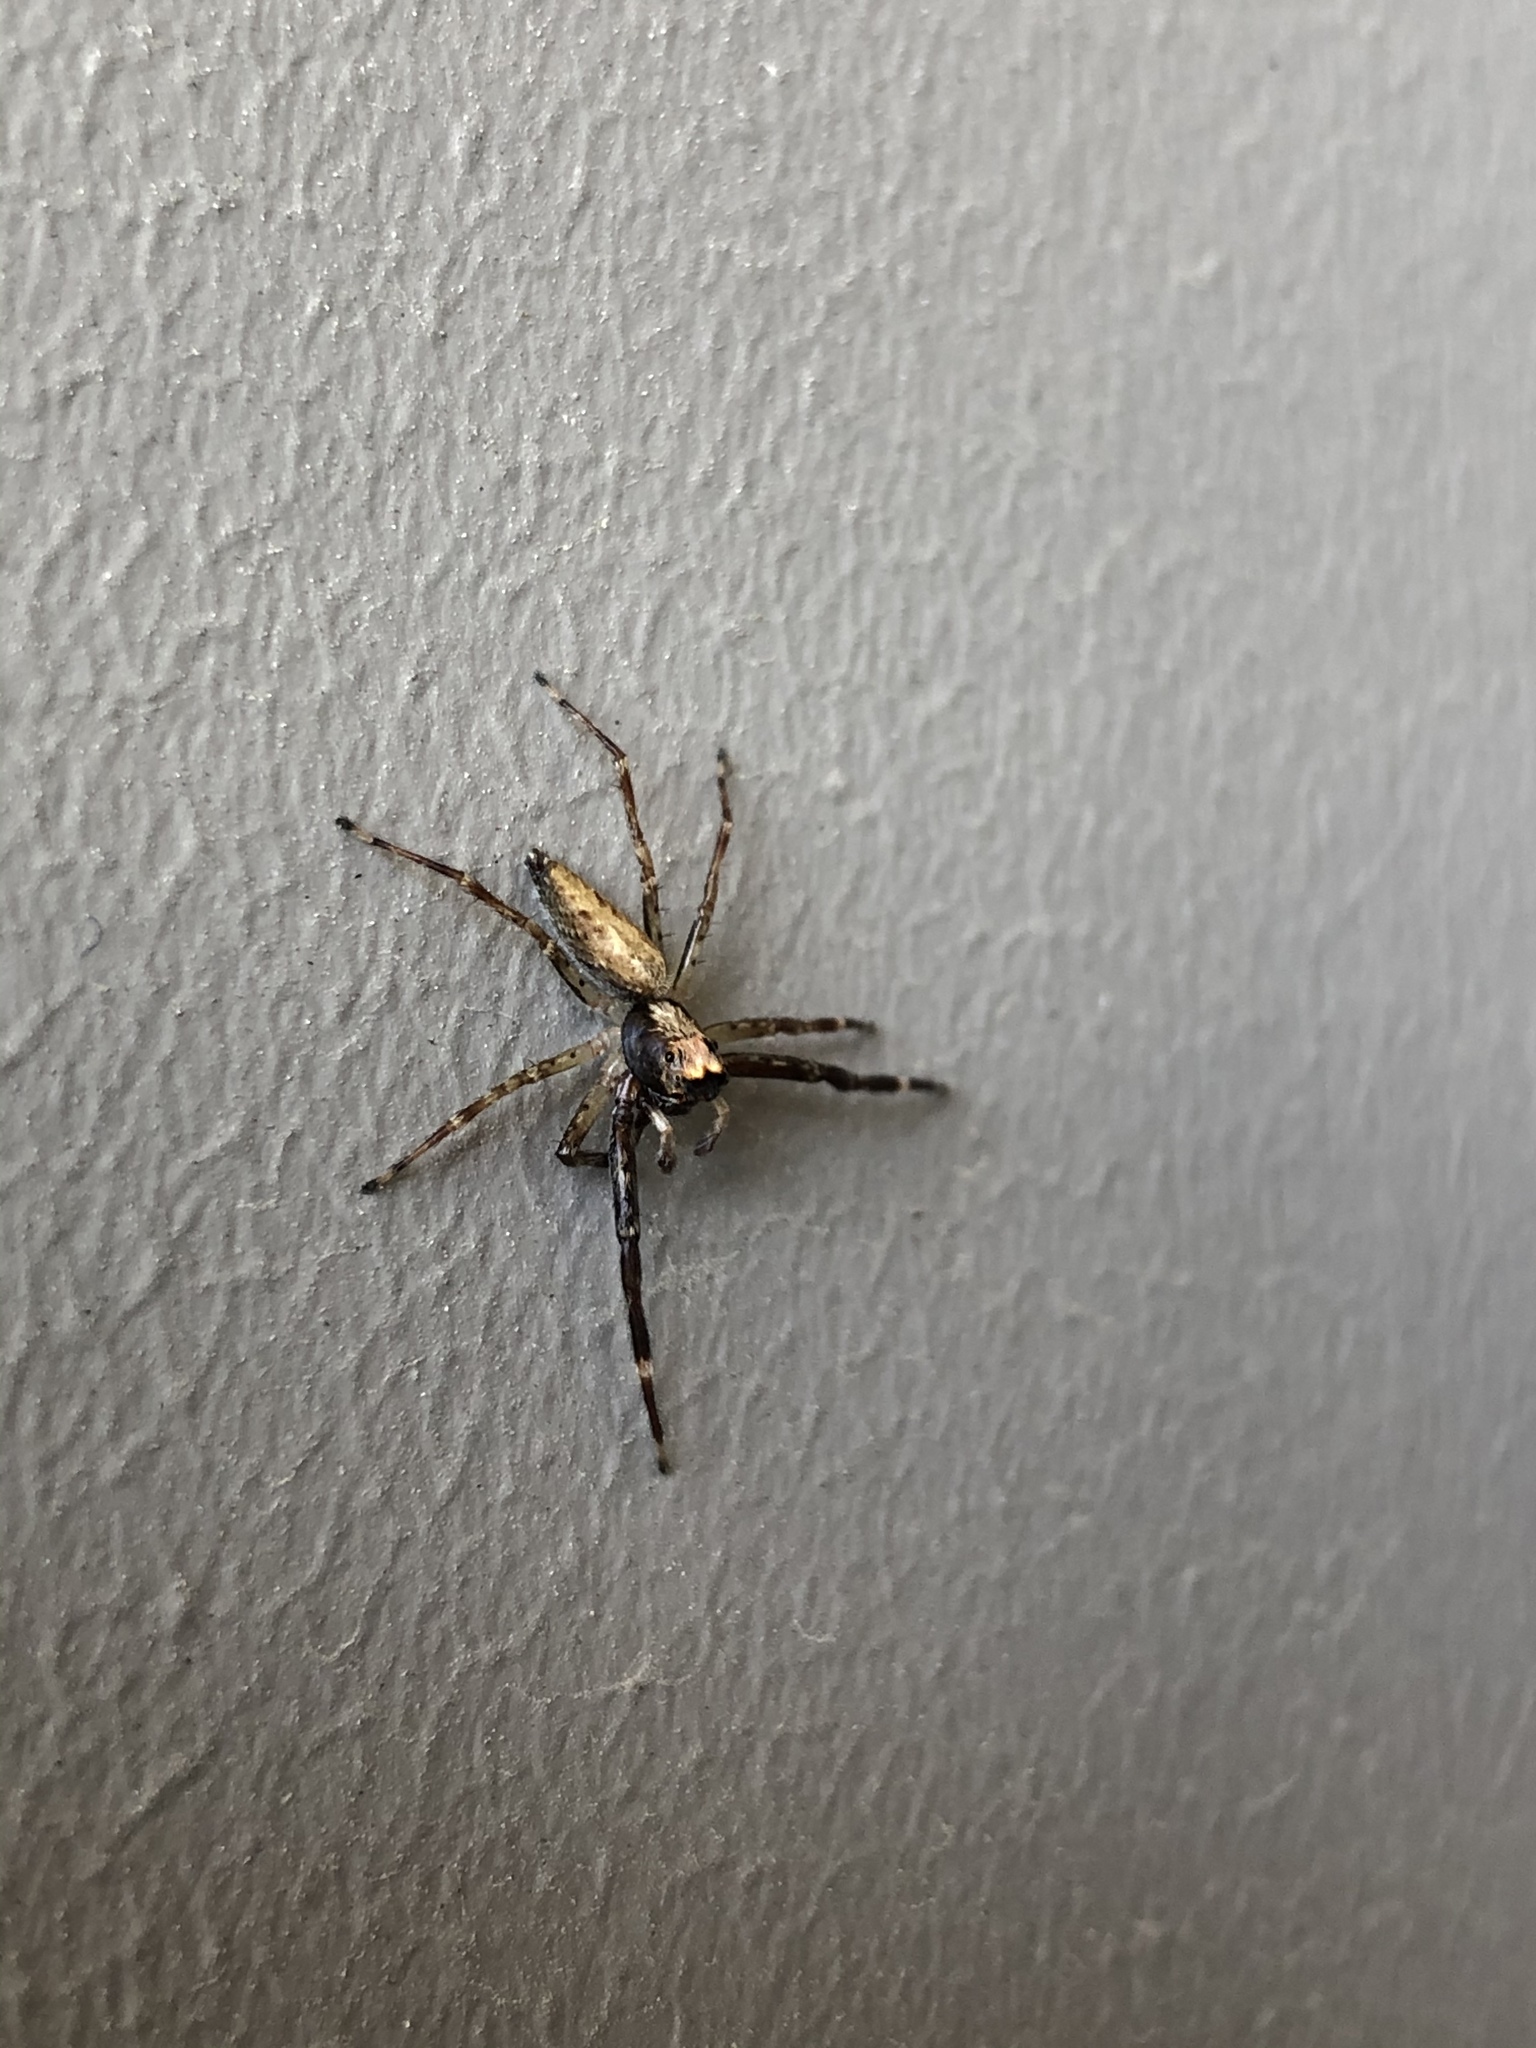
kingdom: Animalia
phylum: Arthropoda
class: Arachnida
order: Araneae
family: Salticidae
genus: Helpis
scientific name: Helpis minitabunda
